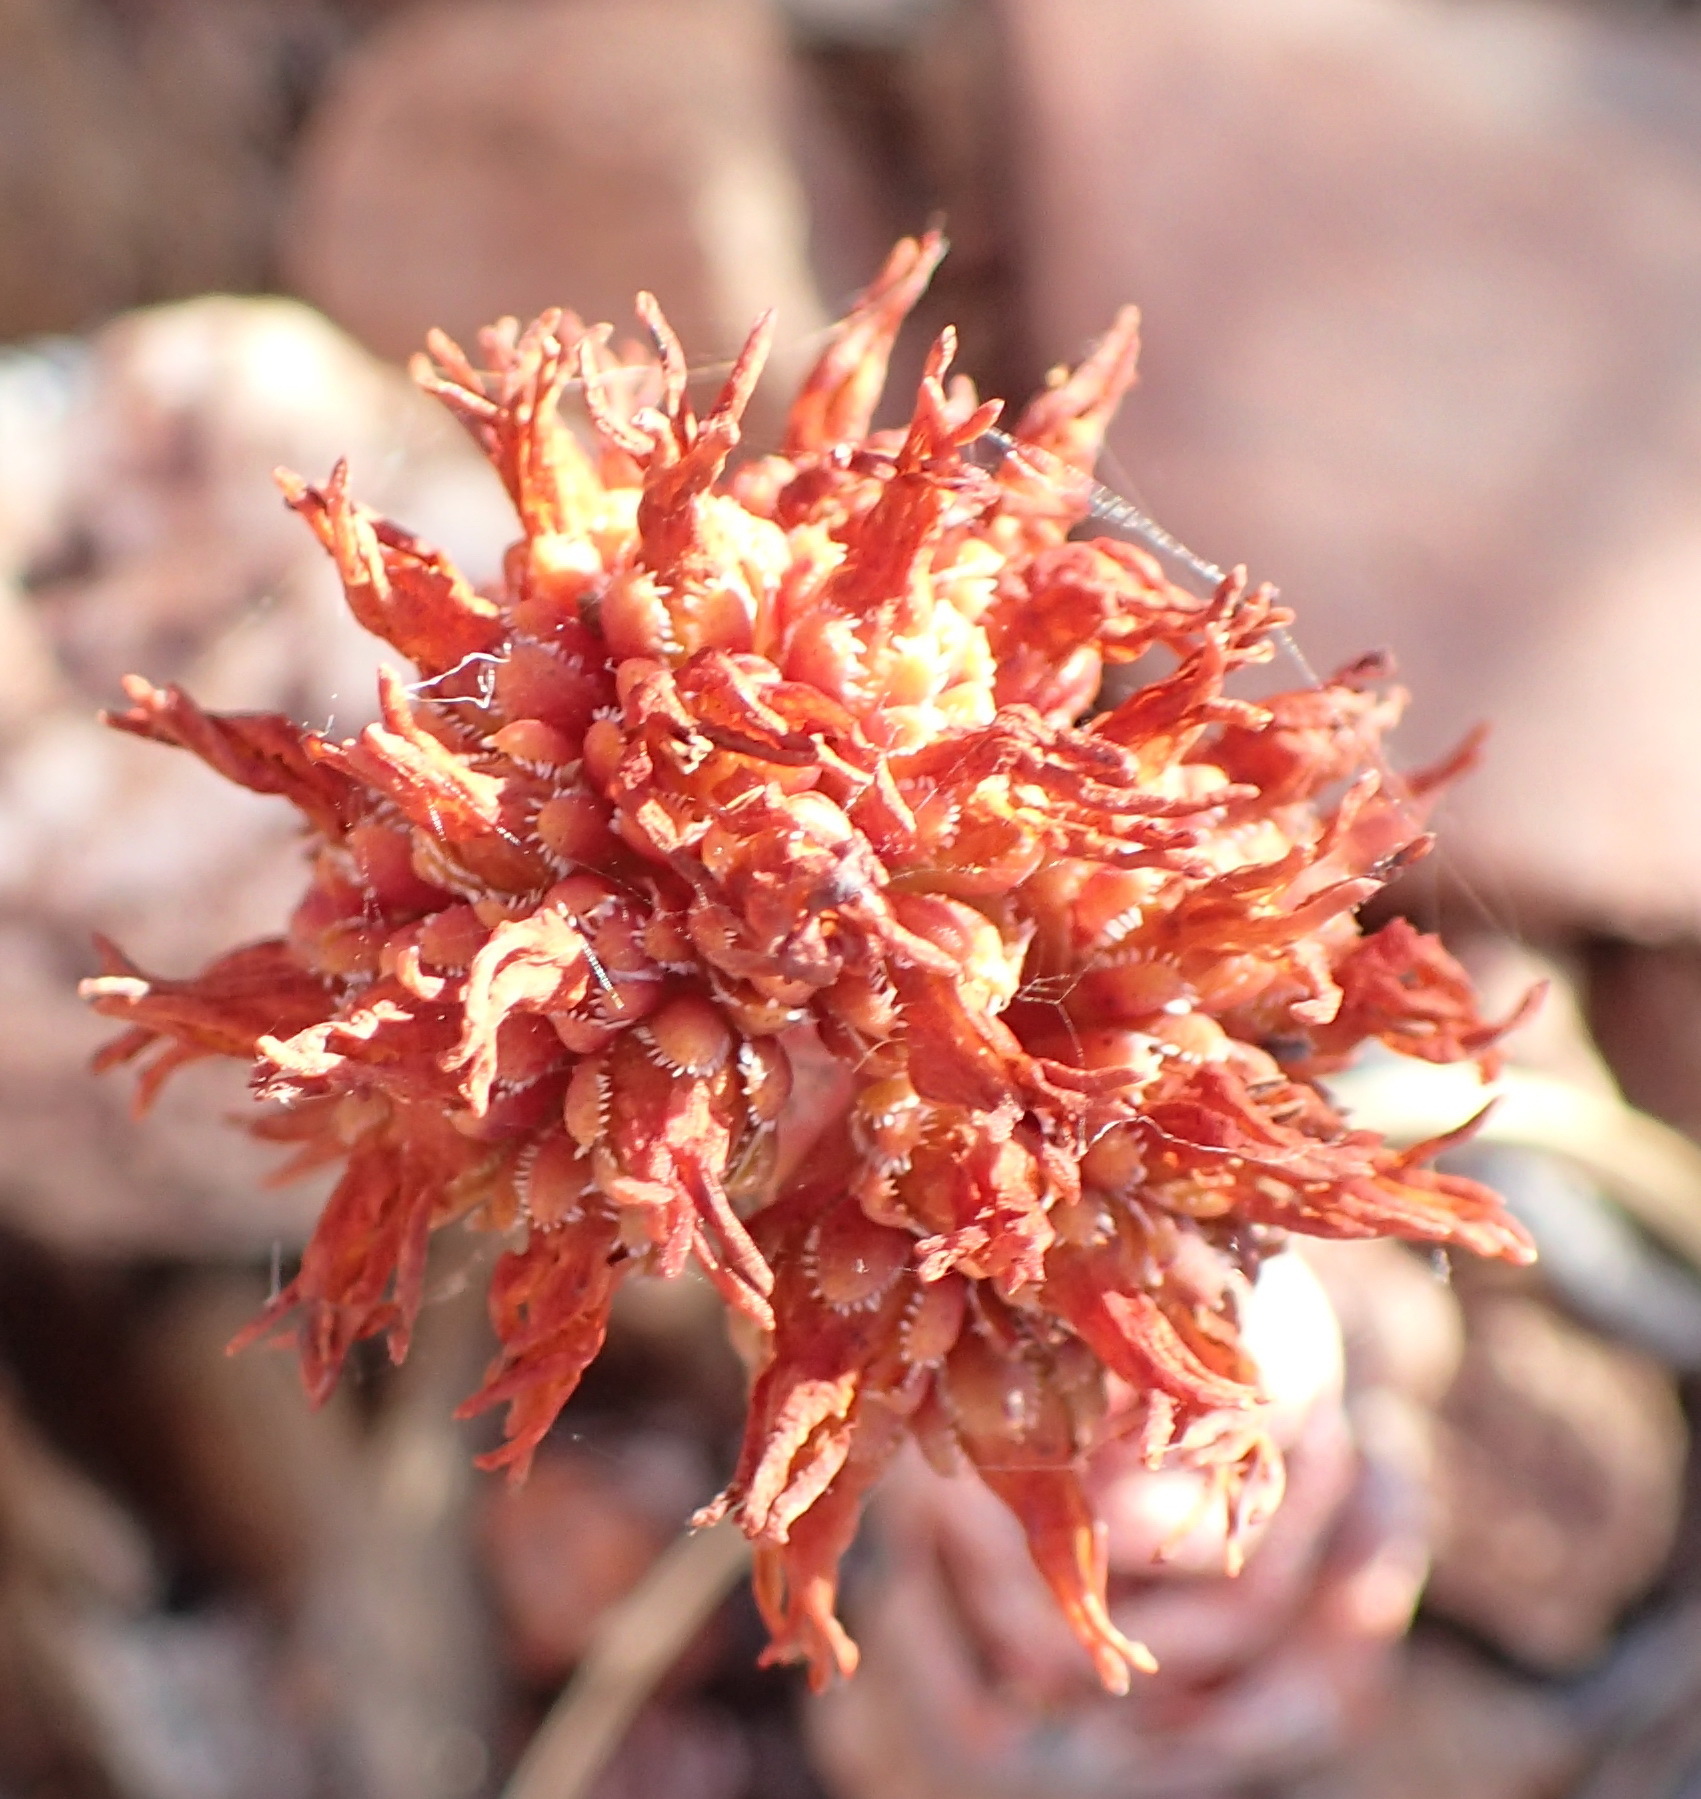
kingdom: Plantae
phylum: Tracheophyta
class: Magnoliopsida
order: Saxifragales
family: Crassulaceae
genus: Crassula
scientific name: Crassula columnaris
